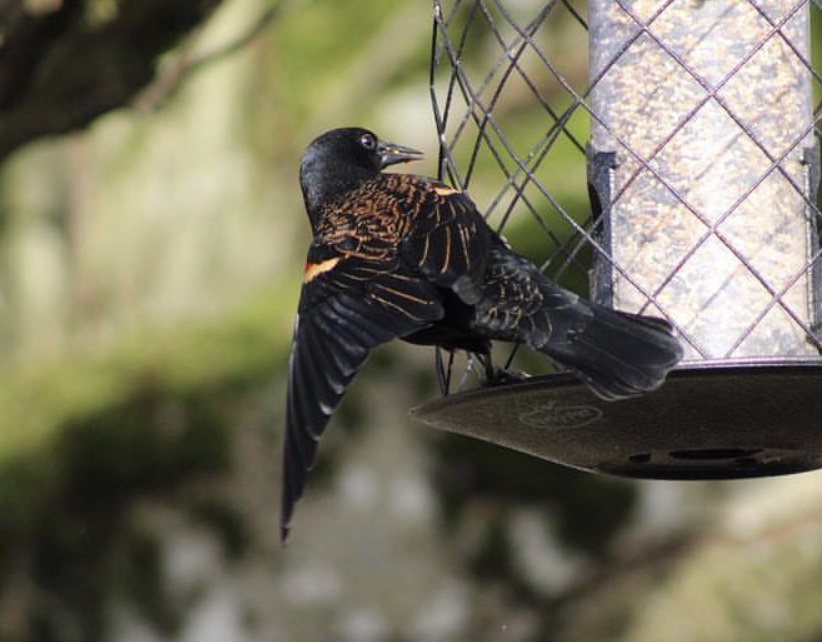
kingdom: Animalia
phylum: Chordata
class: Aves
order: Passeriformes
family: Icteridae
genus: Agelaius
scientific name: Agelaius phoeniceus
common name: Red-winged blackbird
